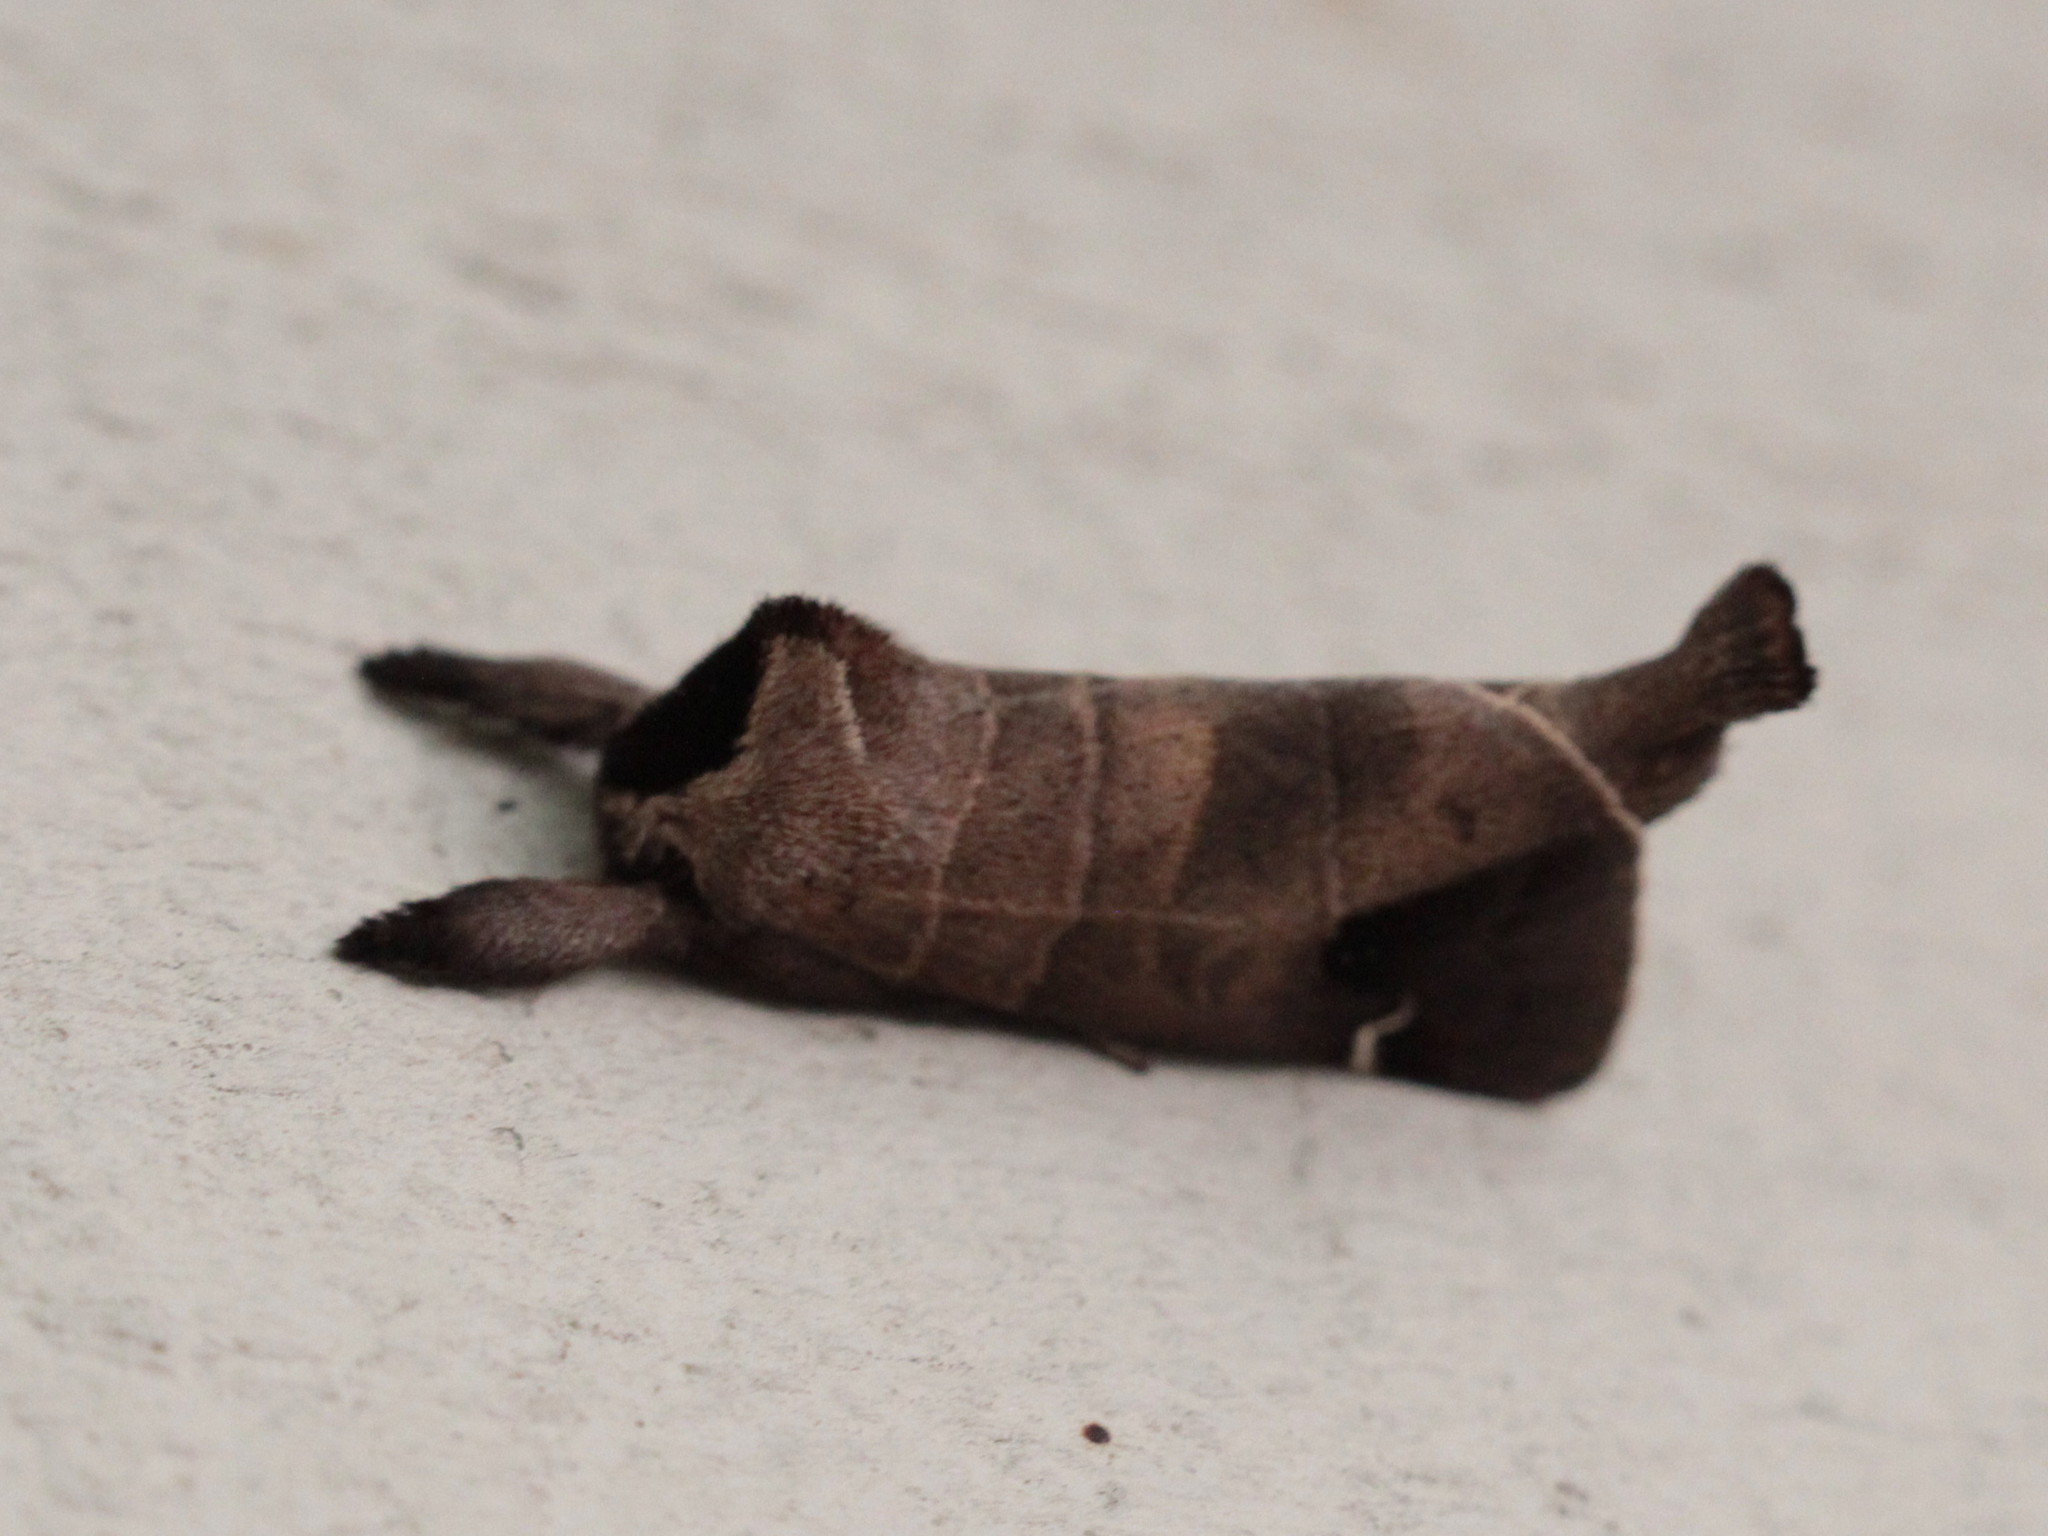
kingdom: Animalia
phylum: Arthropoda
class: Insecta
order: Lepidoptera
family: Notodontidae
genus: Clostera
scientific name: Clostera albosigma
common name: Sigmoid prominent
